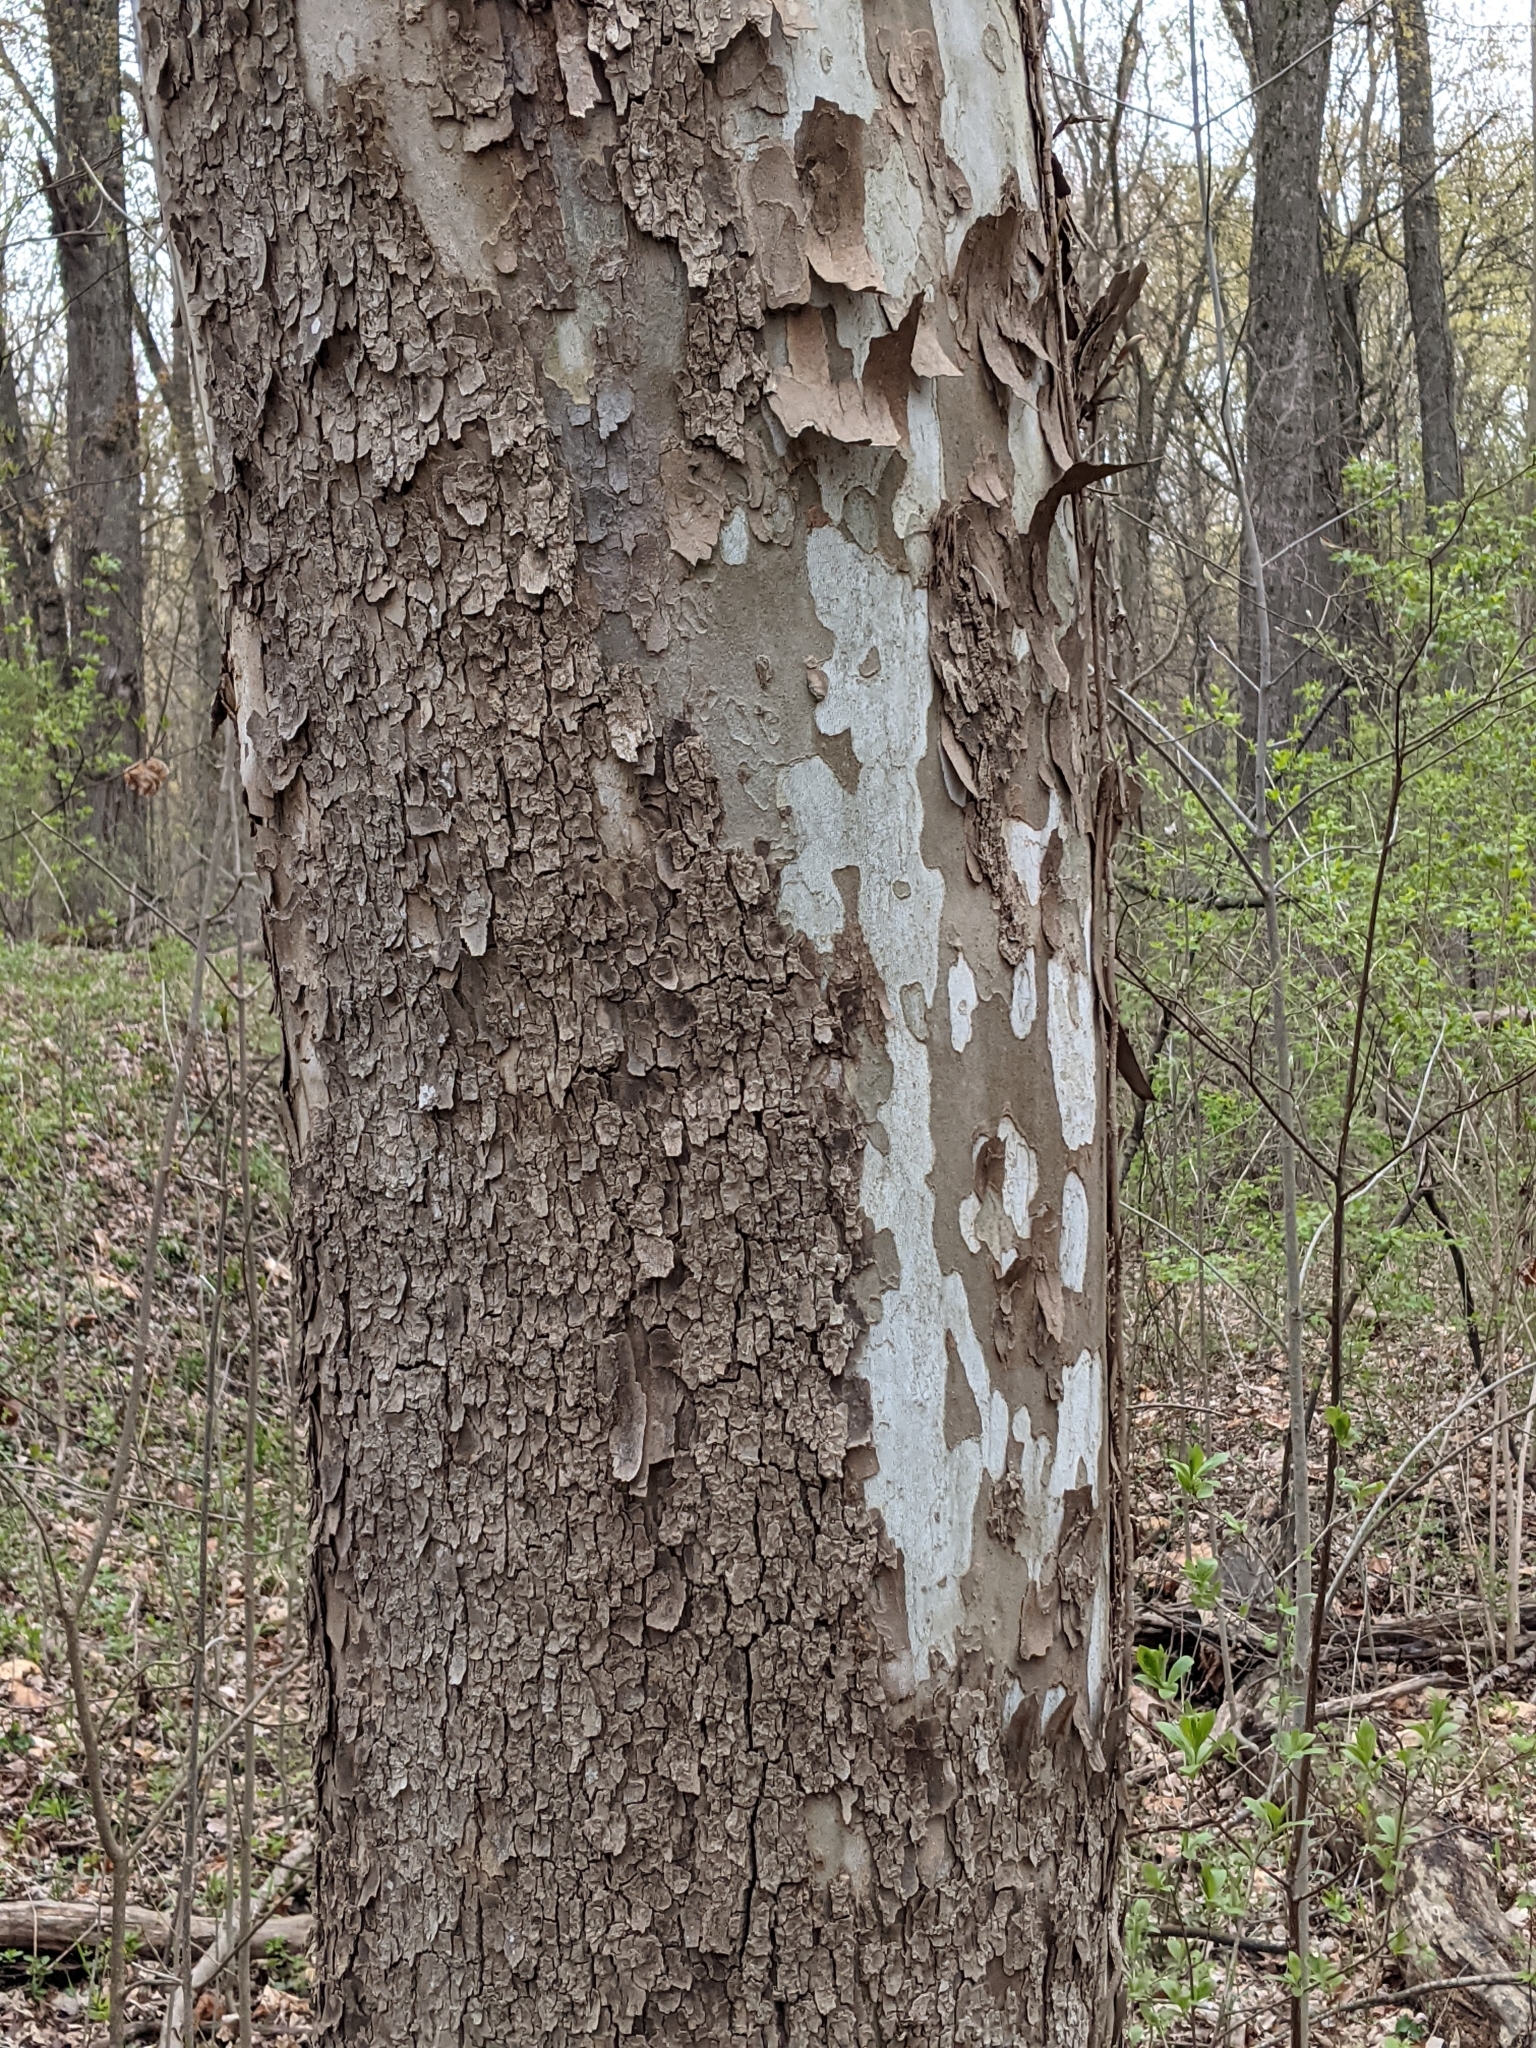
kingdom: Plantae
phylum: Tracheophyta
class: Magnoliopsida
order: Proteales
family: Platanaceae
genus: Platanus
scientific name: Platanus occidentalis
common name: American sycamore
